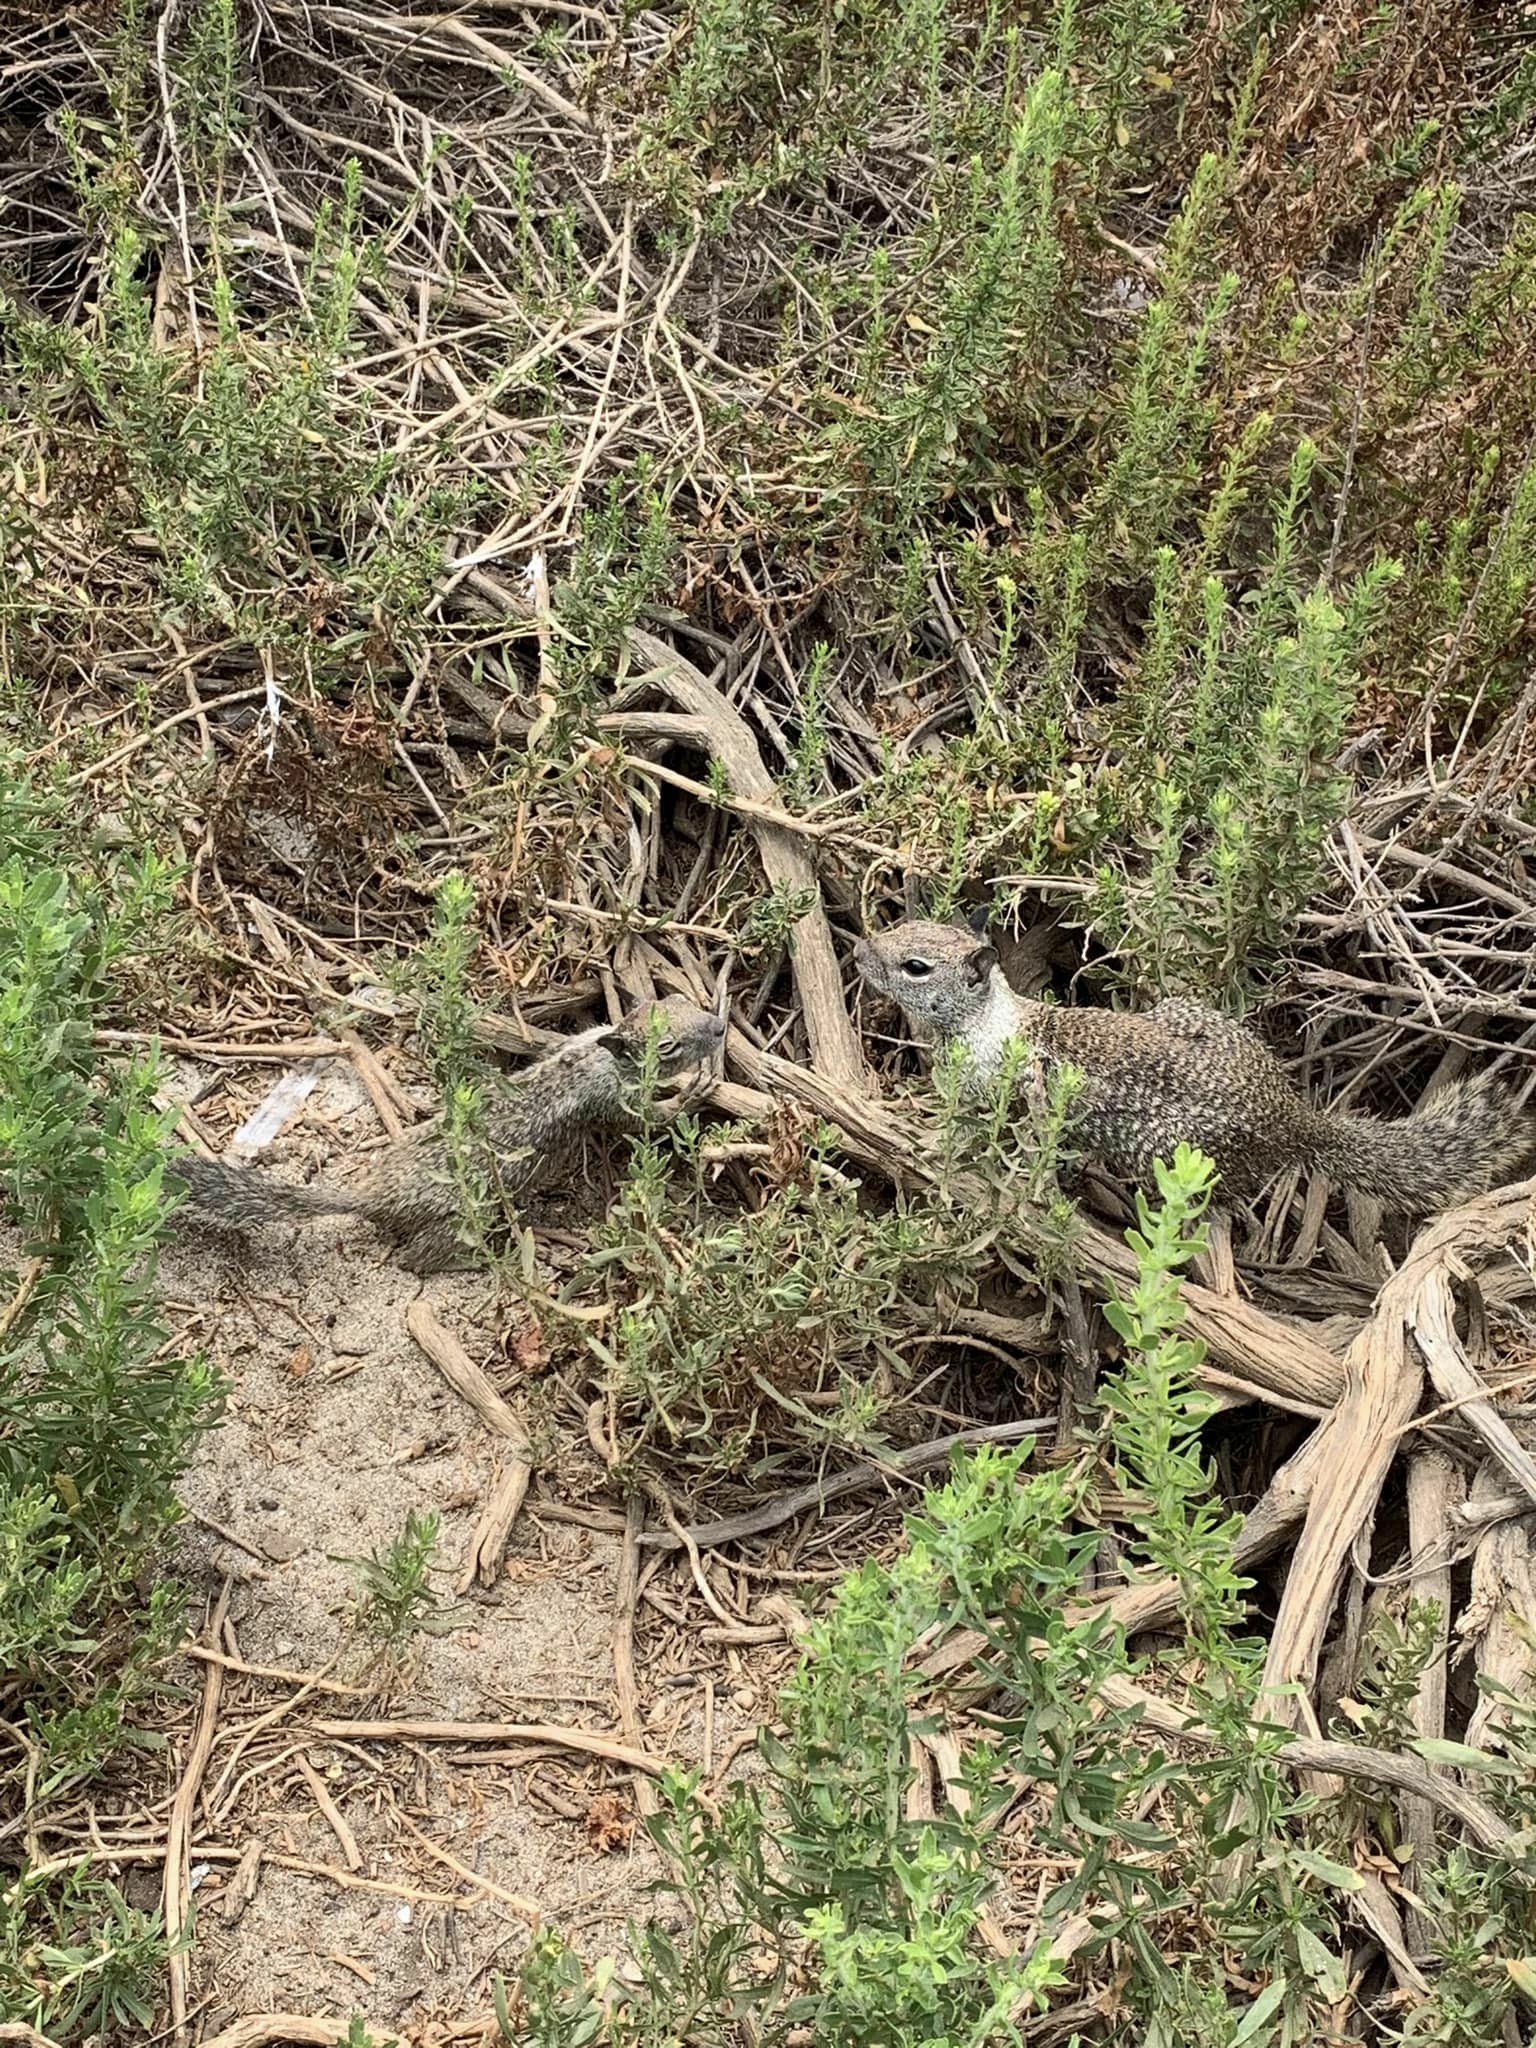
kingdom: Animalia
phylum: Chordata
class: Mammalia
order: Rodentia
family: Sciuridae
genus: Otospermophilus
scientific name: Otospermophilus beecheyi
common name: California ground squirrel
